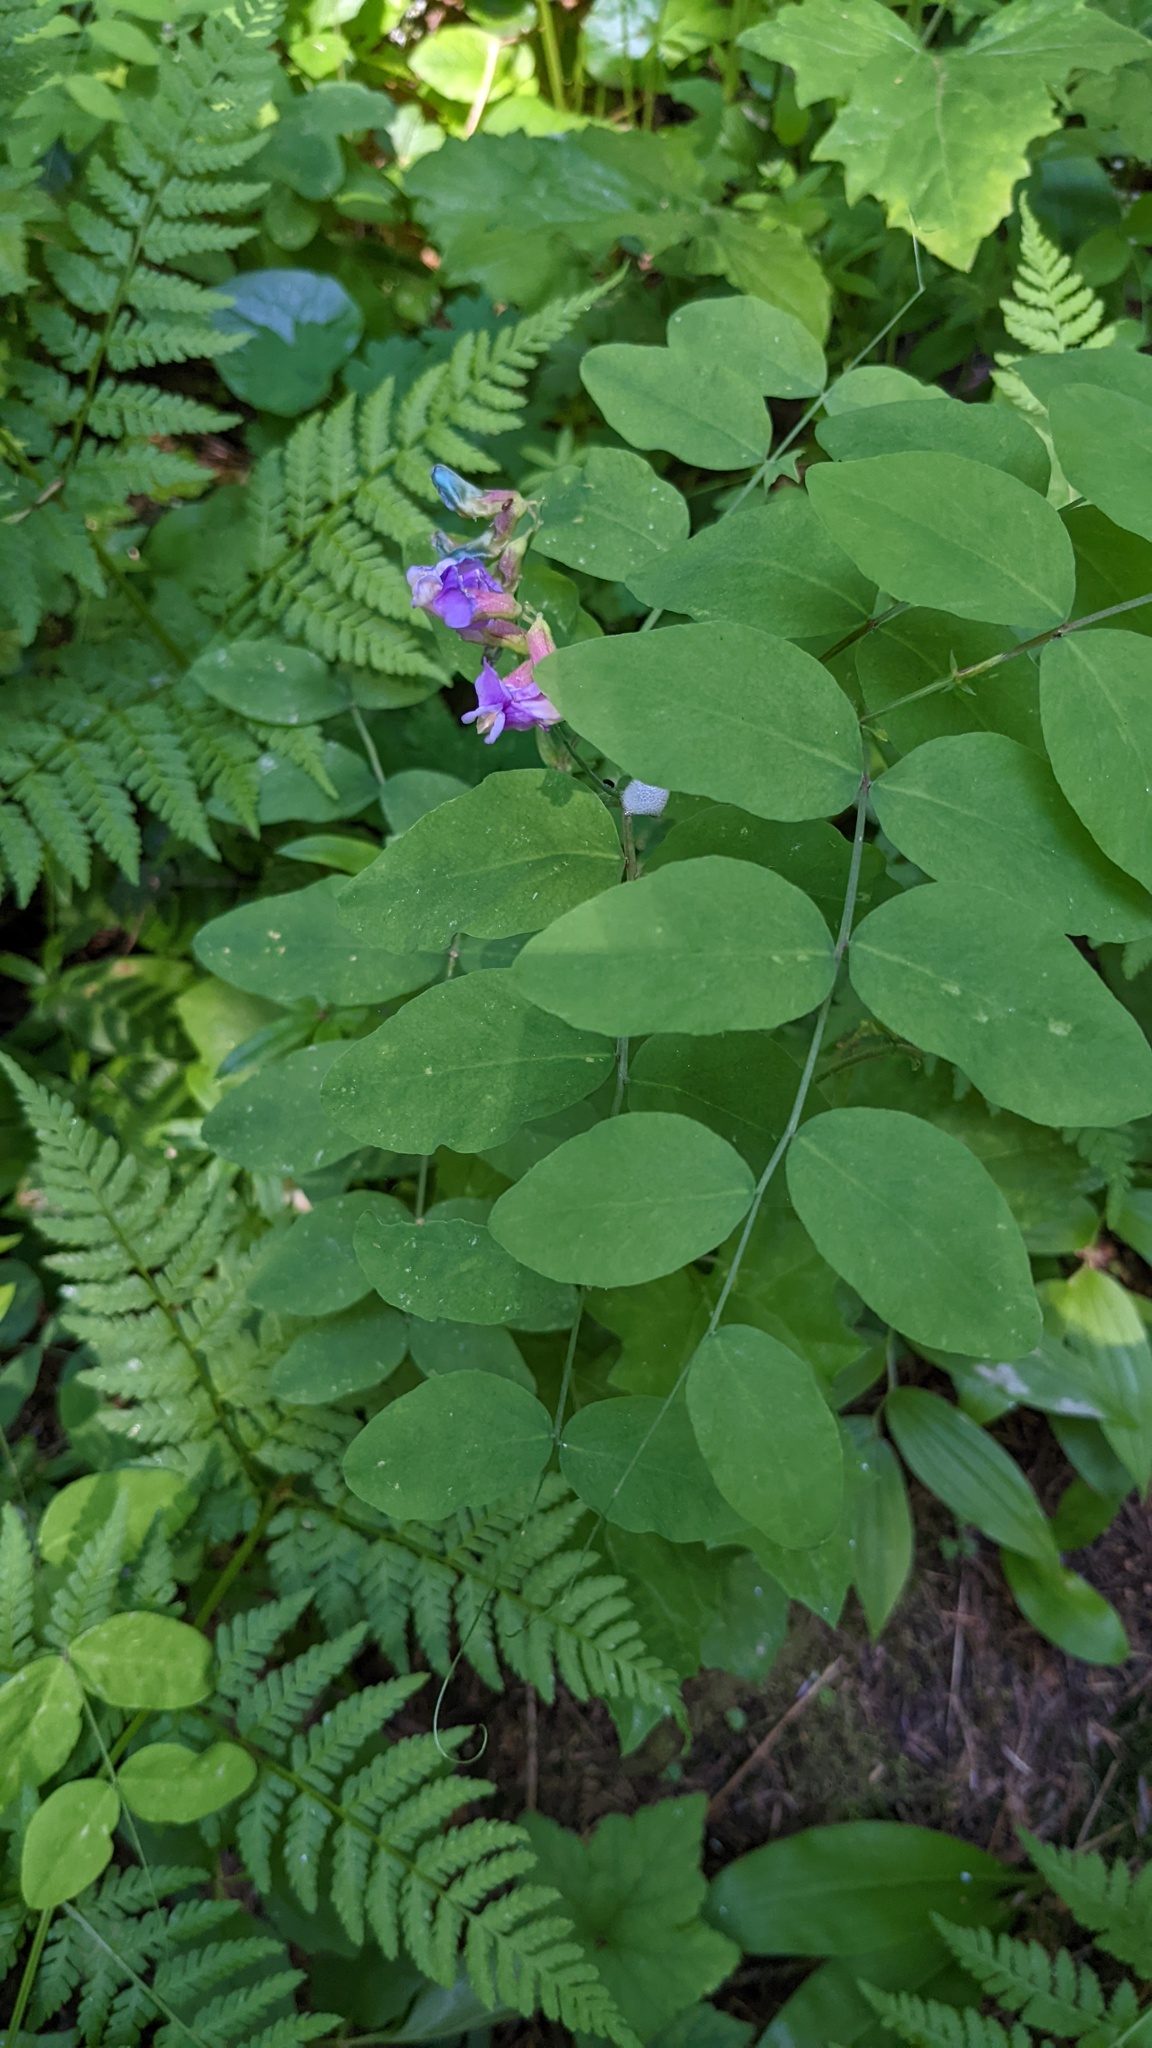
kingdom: Plantae
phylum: Tracheophyta
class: Magnoliopsida
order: Fabales
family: Fabaceae
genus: Lathyrus
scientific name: Lathyrus nevadensis
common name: Sierra nevada peavine
